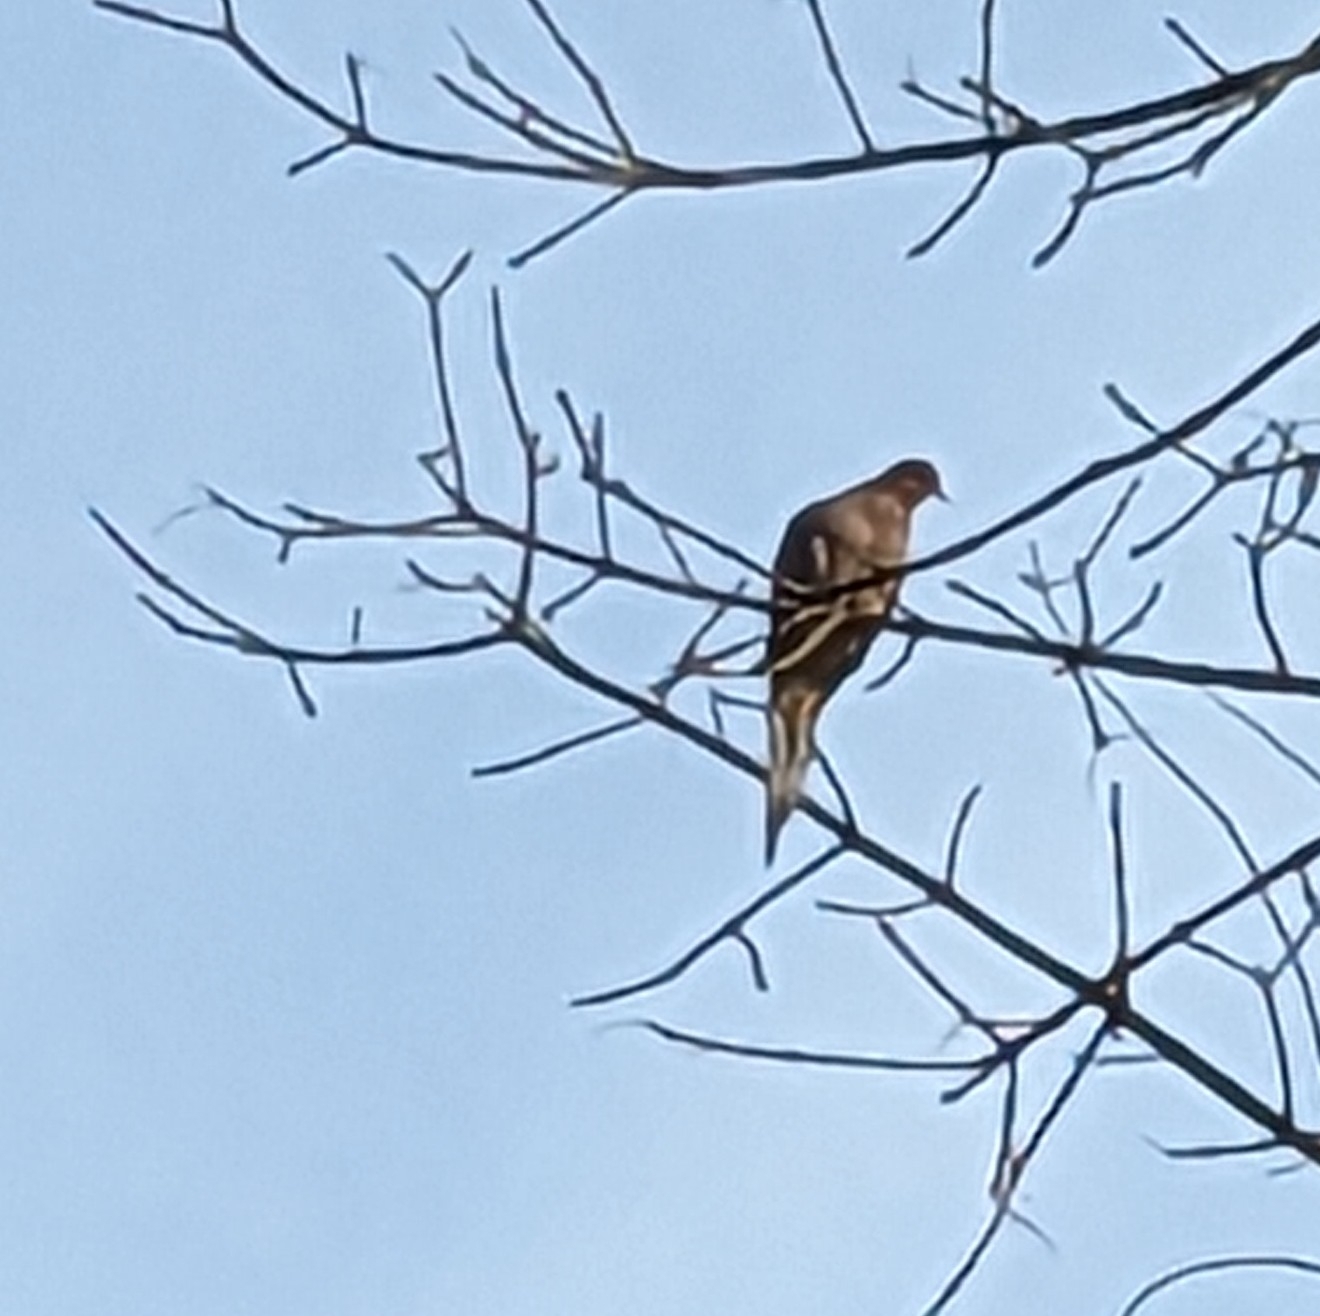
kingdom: Animalia
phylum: Chordata
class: Aves
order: Columbiformes
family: Columbidae
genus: Zenaida
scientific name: Zenaida macroura
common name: Mourning dove
